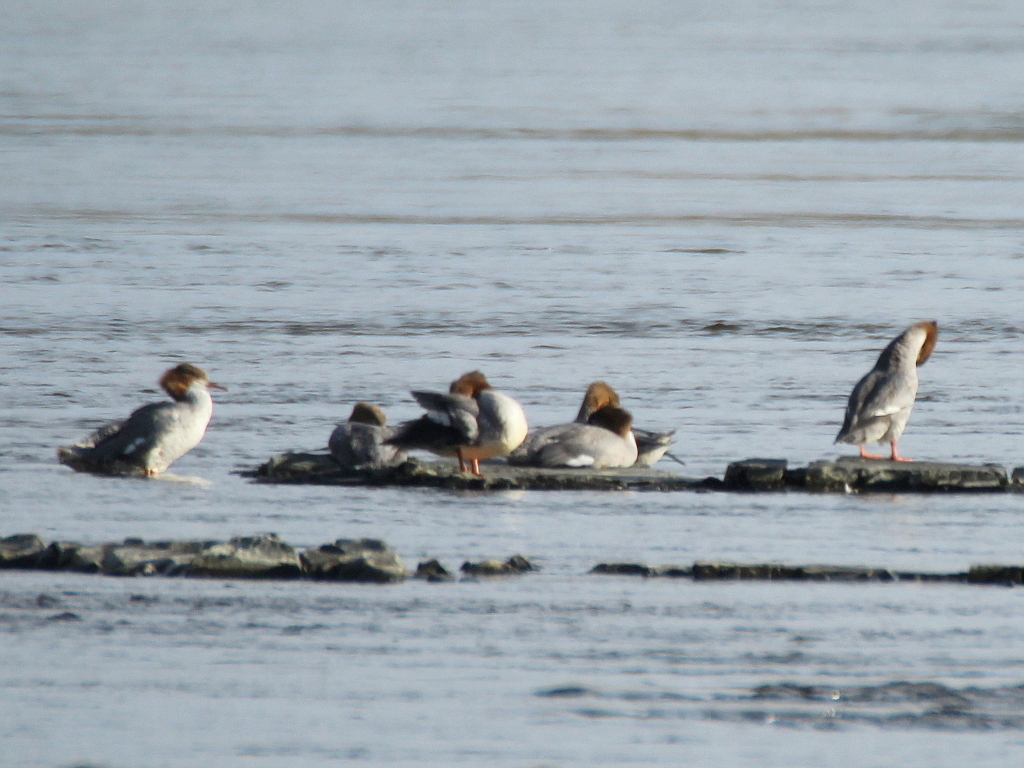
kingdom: Animalia
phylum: Chordata
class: Aves
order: Anseriformes
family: Anatidae
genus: Mergus
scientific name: Mergus merganser
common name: Common merganser
